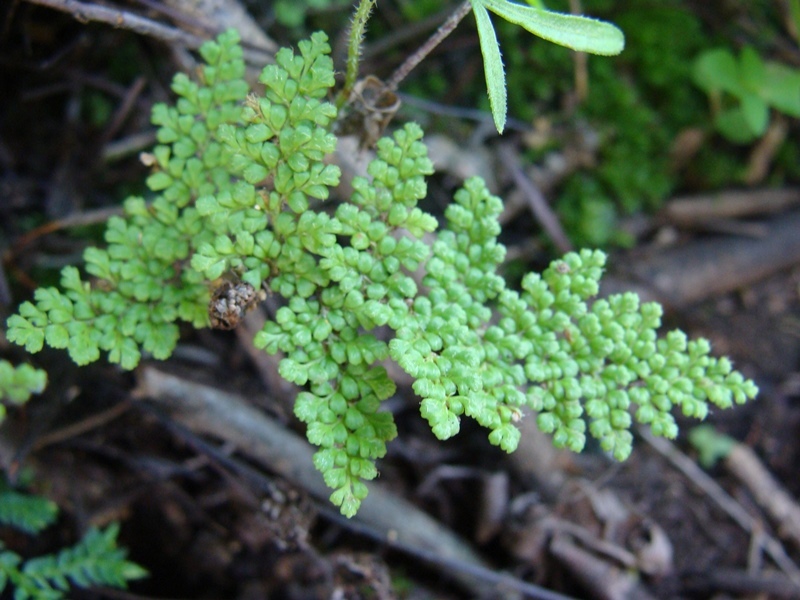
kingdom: Plantae
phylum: Tracheophyta
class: Polypodiopsida
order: Polypodiales
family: Pteridaceae
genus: Myriopteris
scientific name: Myriopteris myriophylla
